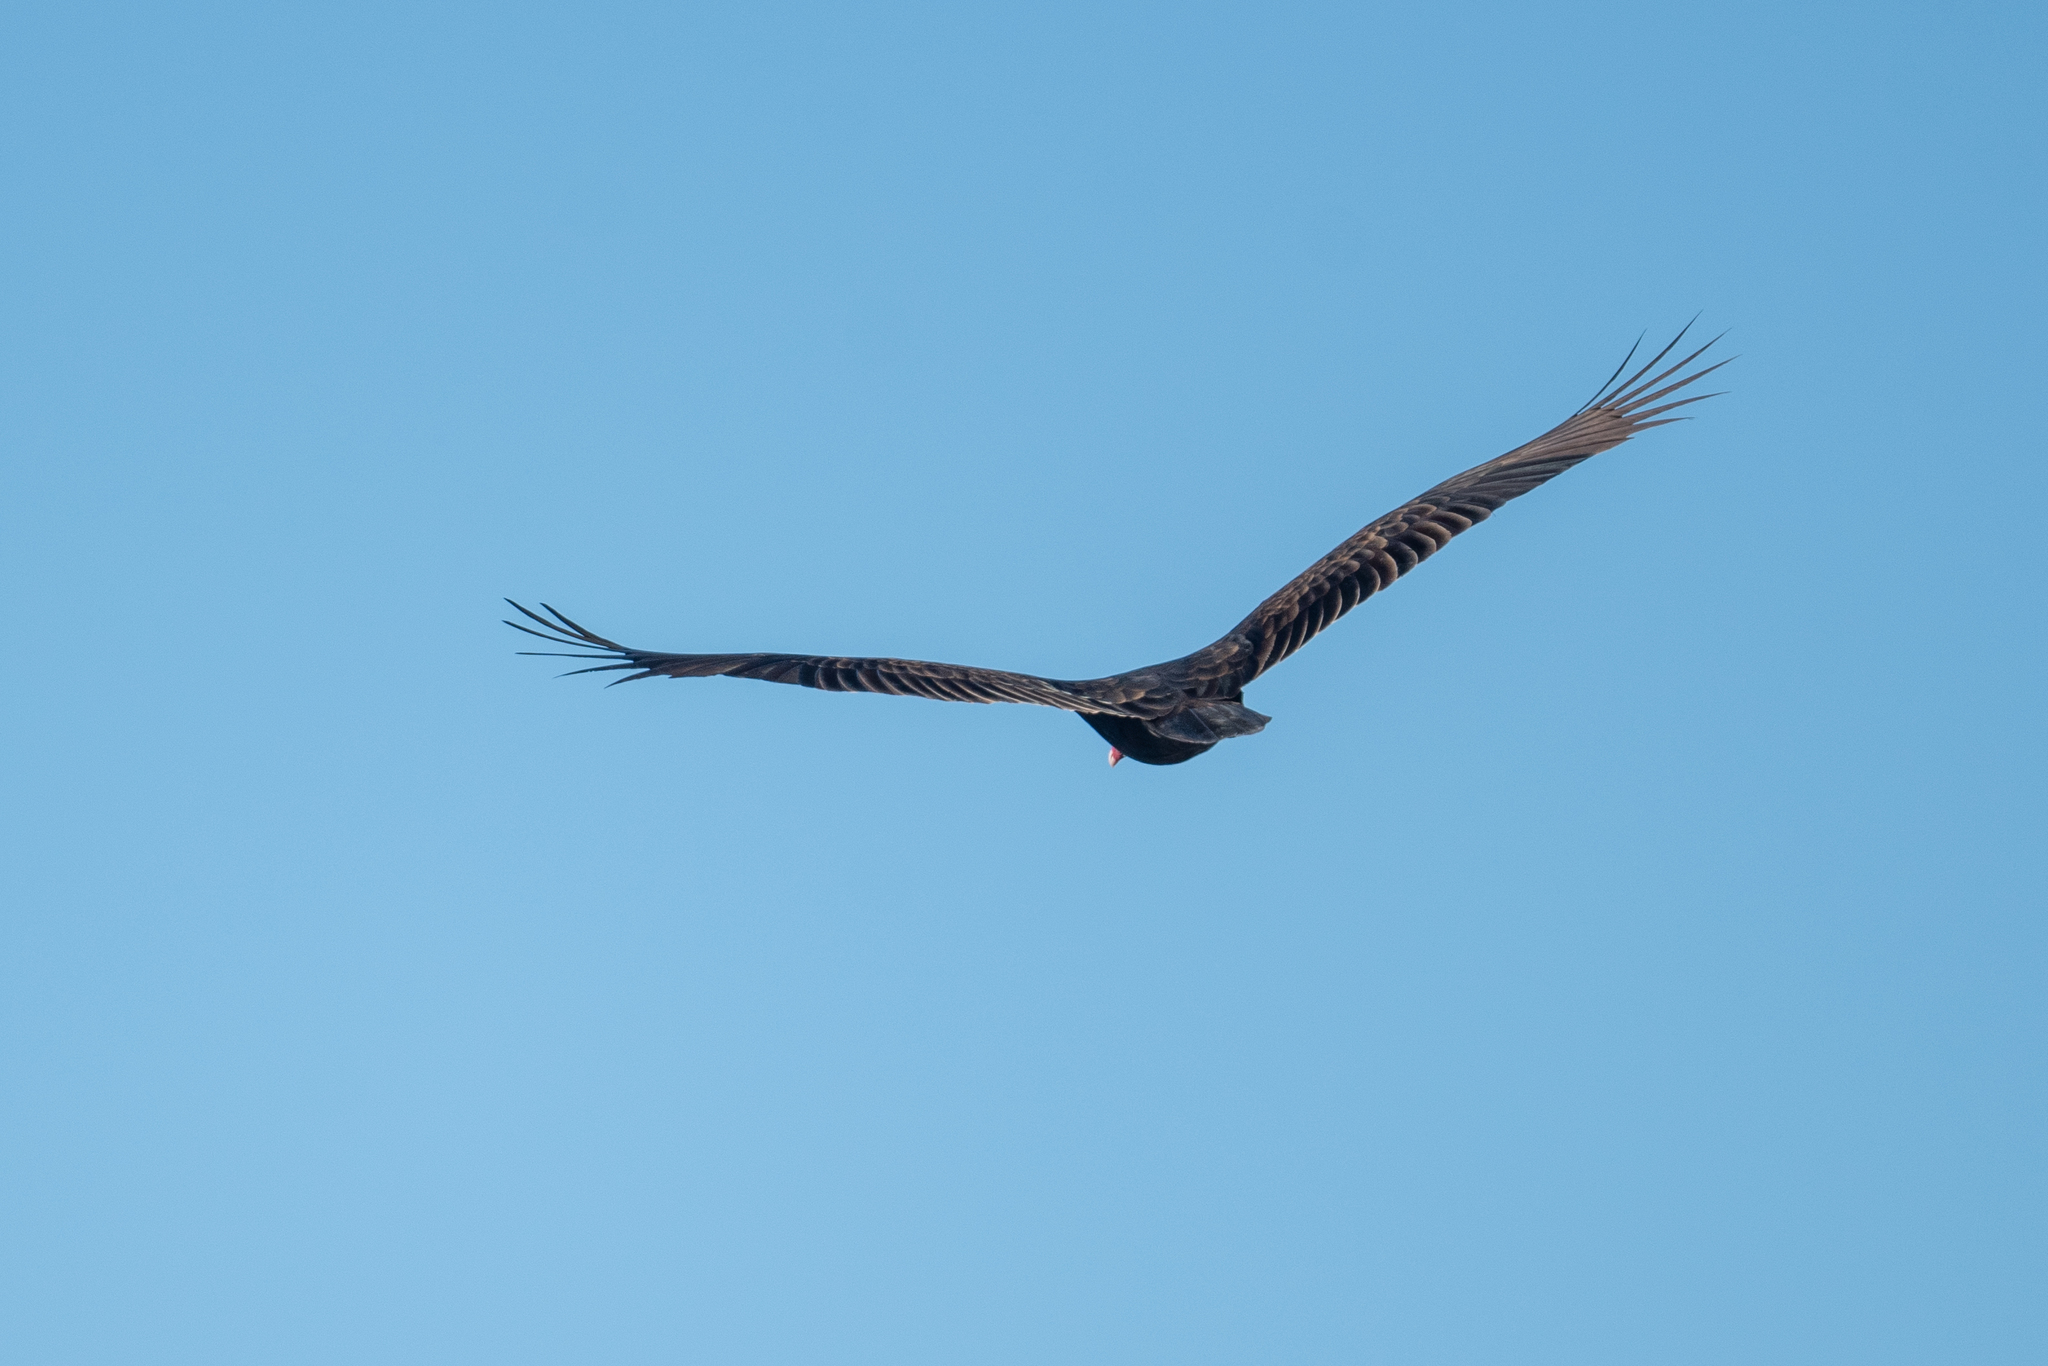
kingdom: Animalia
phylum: Chordata
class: Aves
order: Accipitriformes
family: Cathartidae
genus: Cathartes
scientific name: Cathartes aura
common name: Turkey vulture
